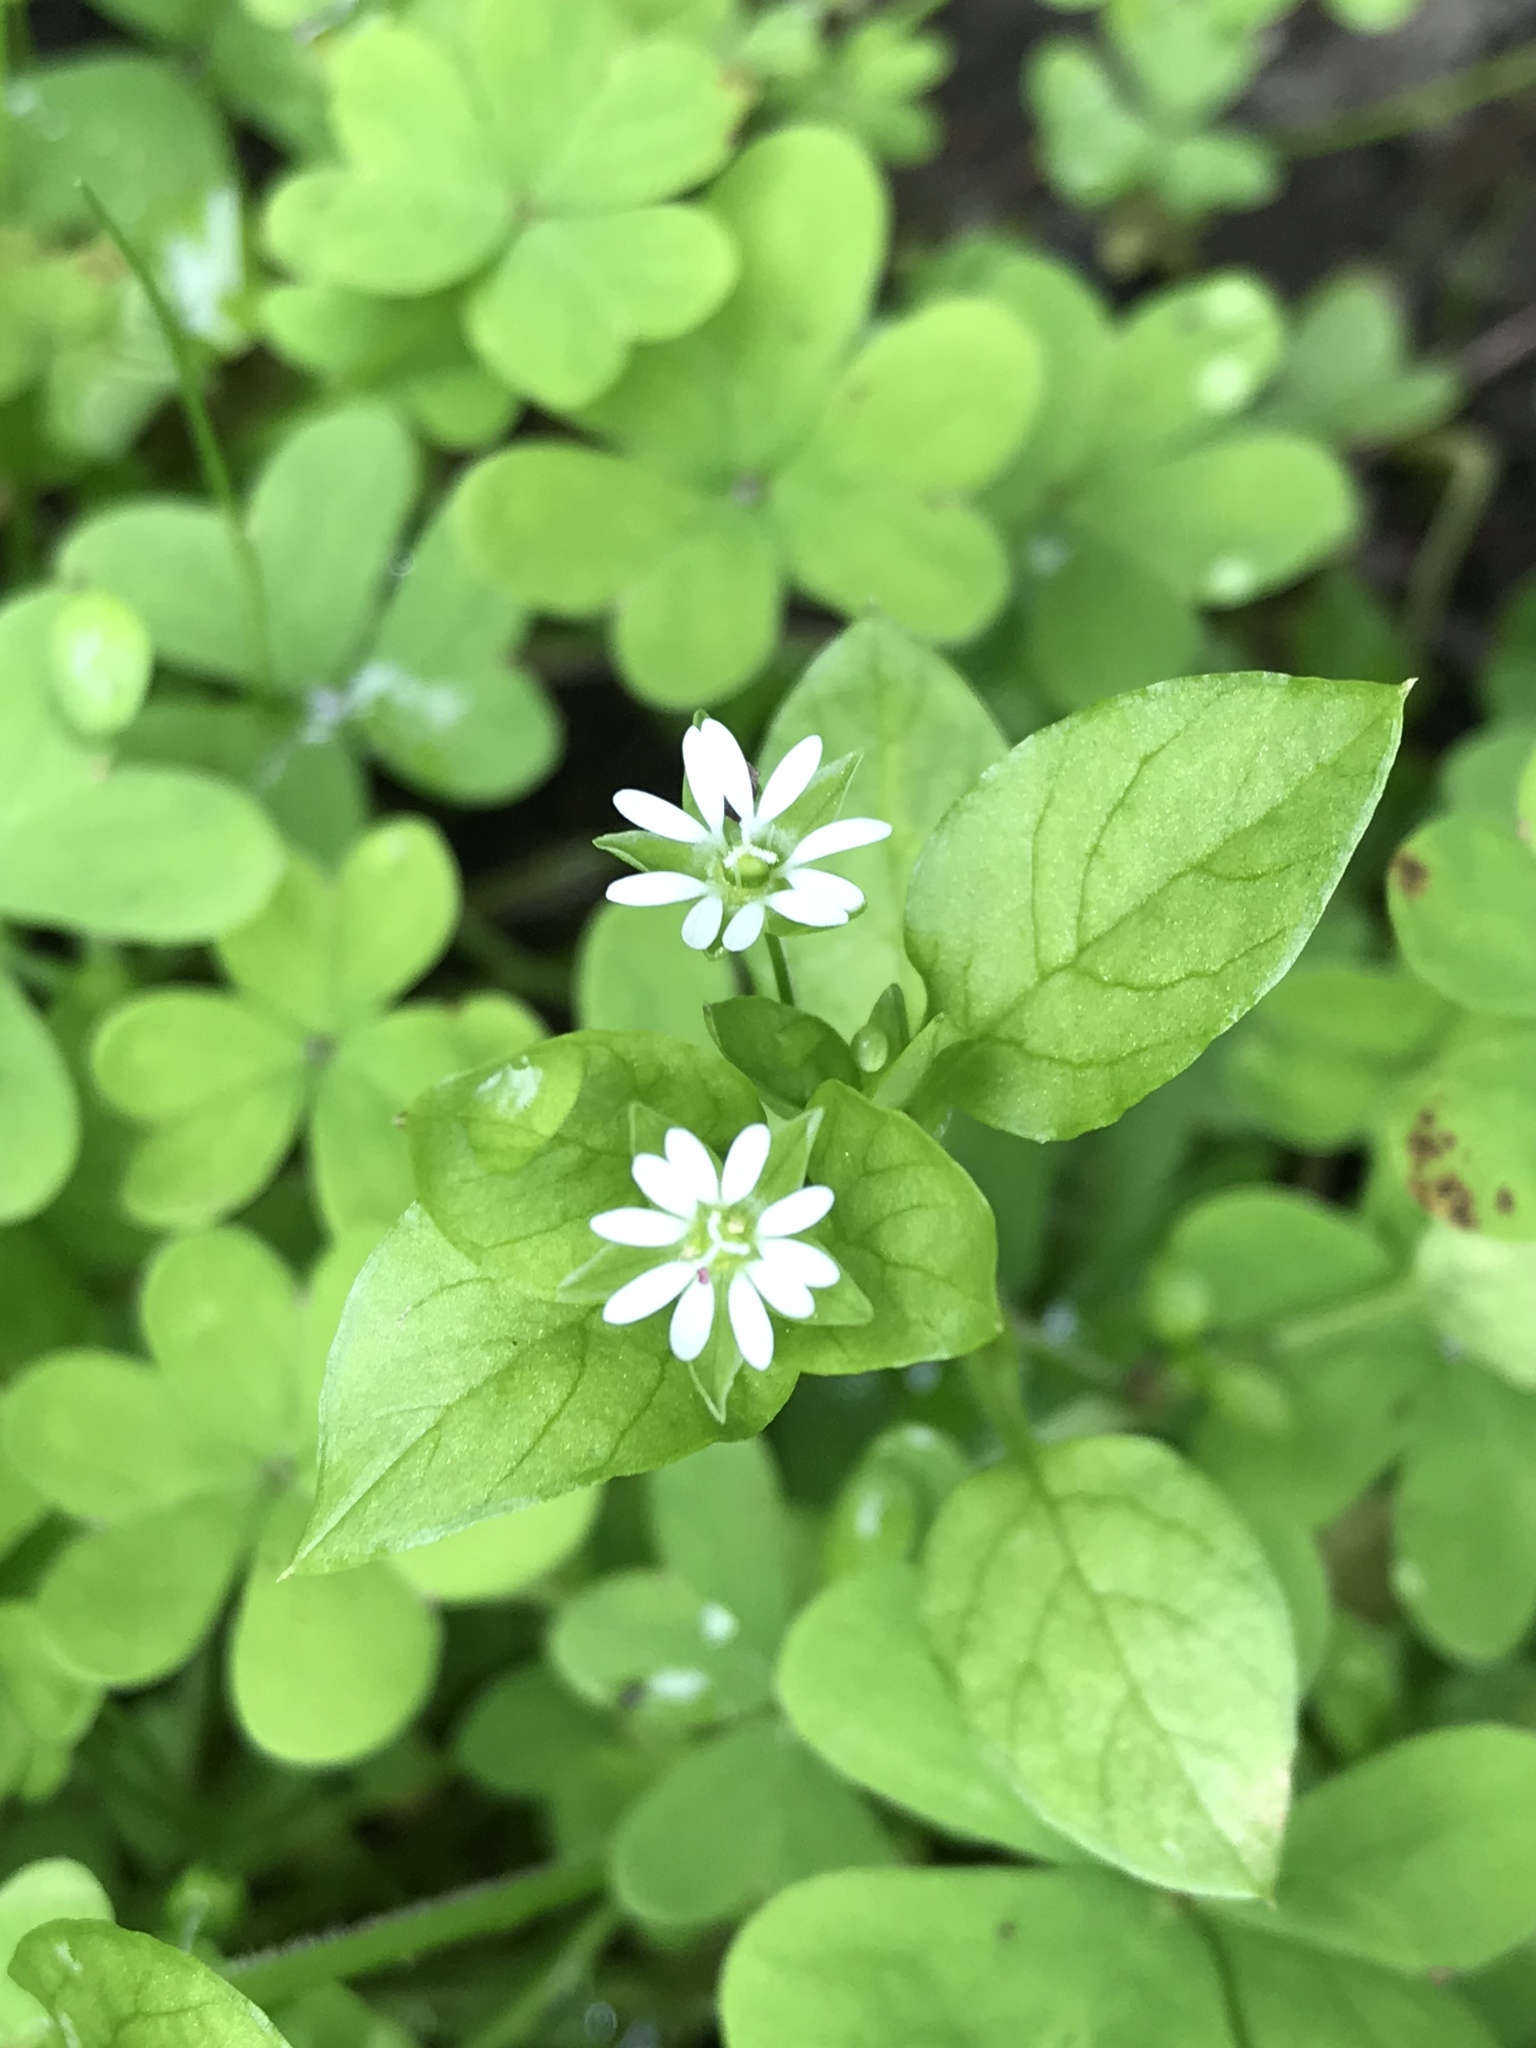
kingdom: Plantae
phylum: Tracheophyta
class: Magnoliopsida
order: Caryophyllales
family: Caryophyllaceae
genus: Stellaria
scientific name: Stellaria media
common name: Common chickweed
